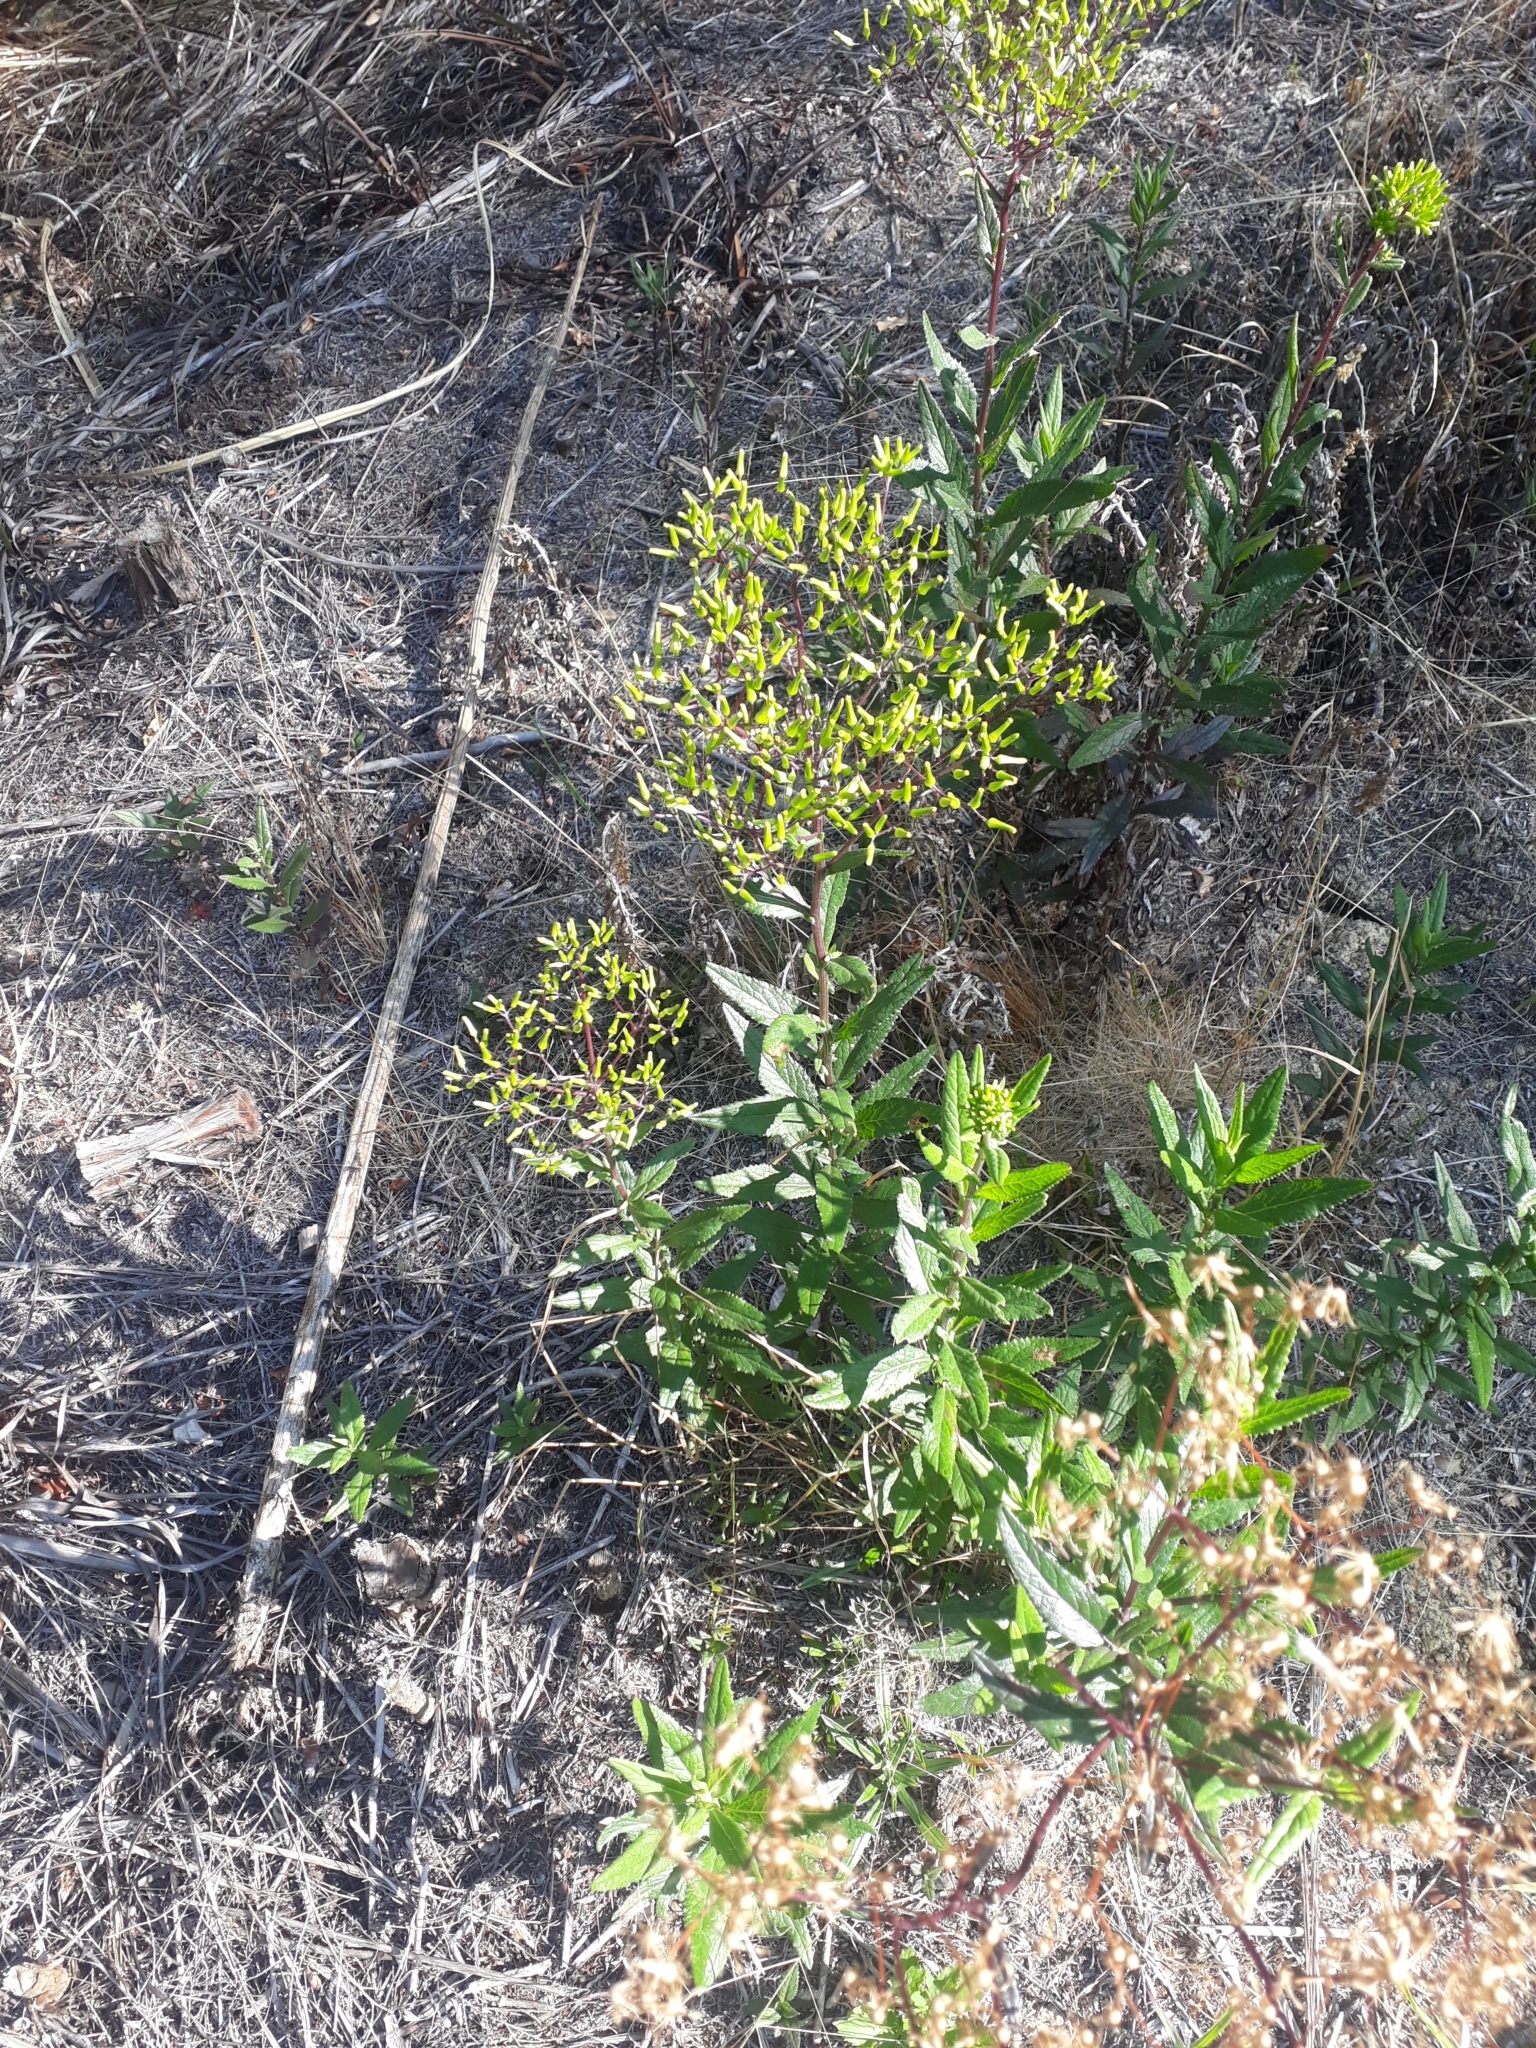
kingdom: Plantae
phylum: Tracheophyta
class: Magnoliopsida
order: Asterales
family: Asteraceae
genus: Senecio
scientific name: Senecio minimus
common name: Toothed fireweed
